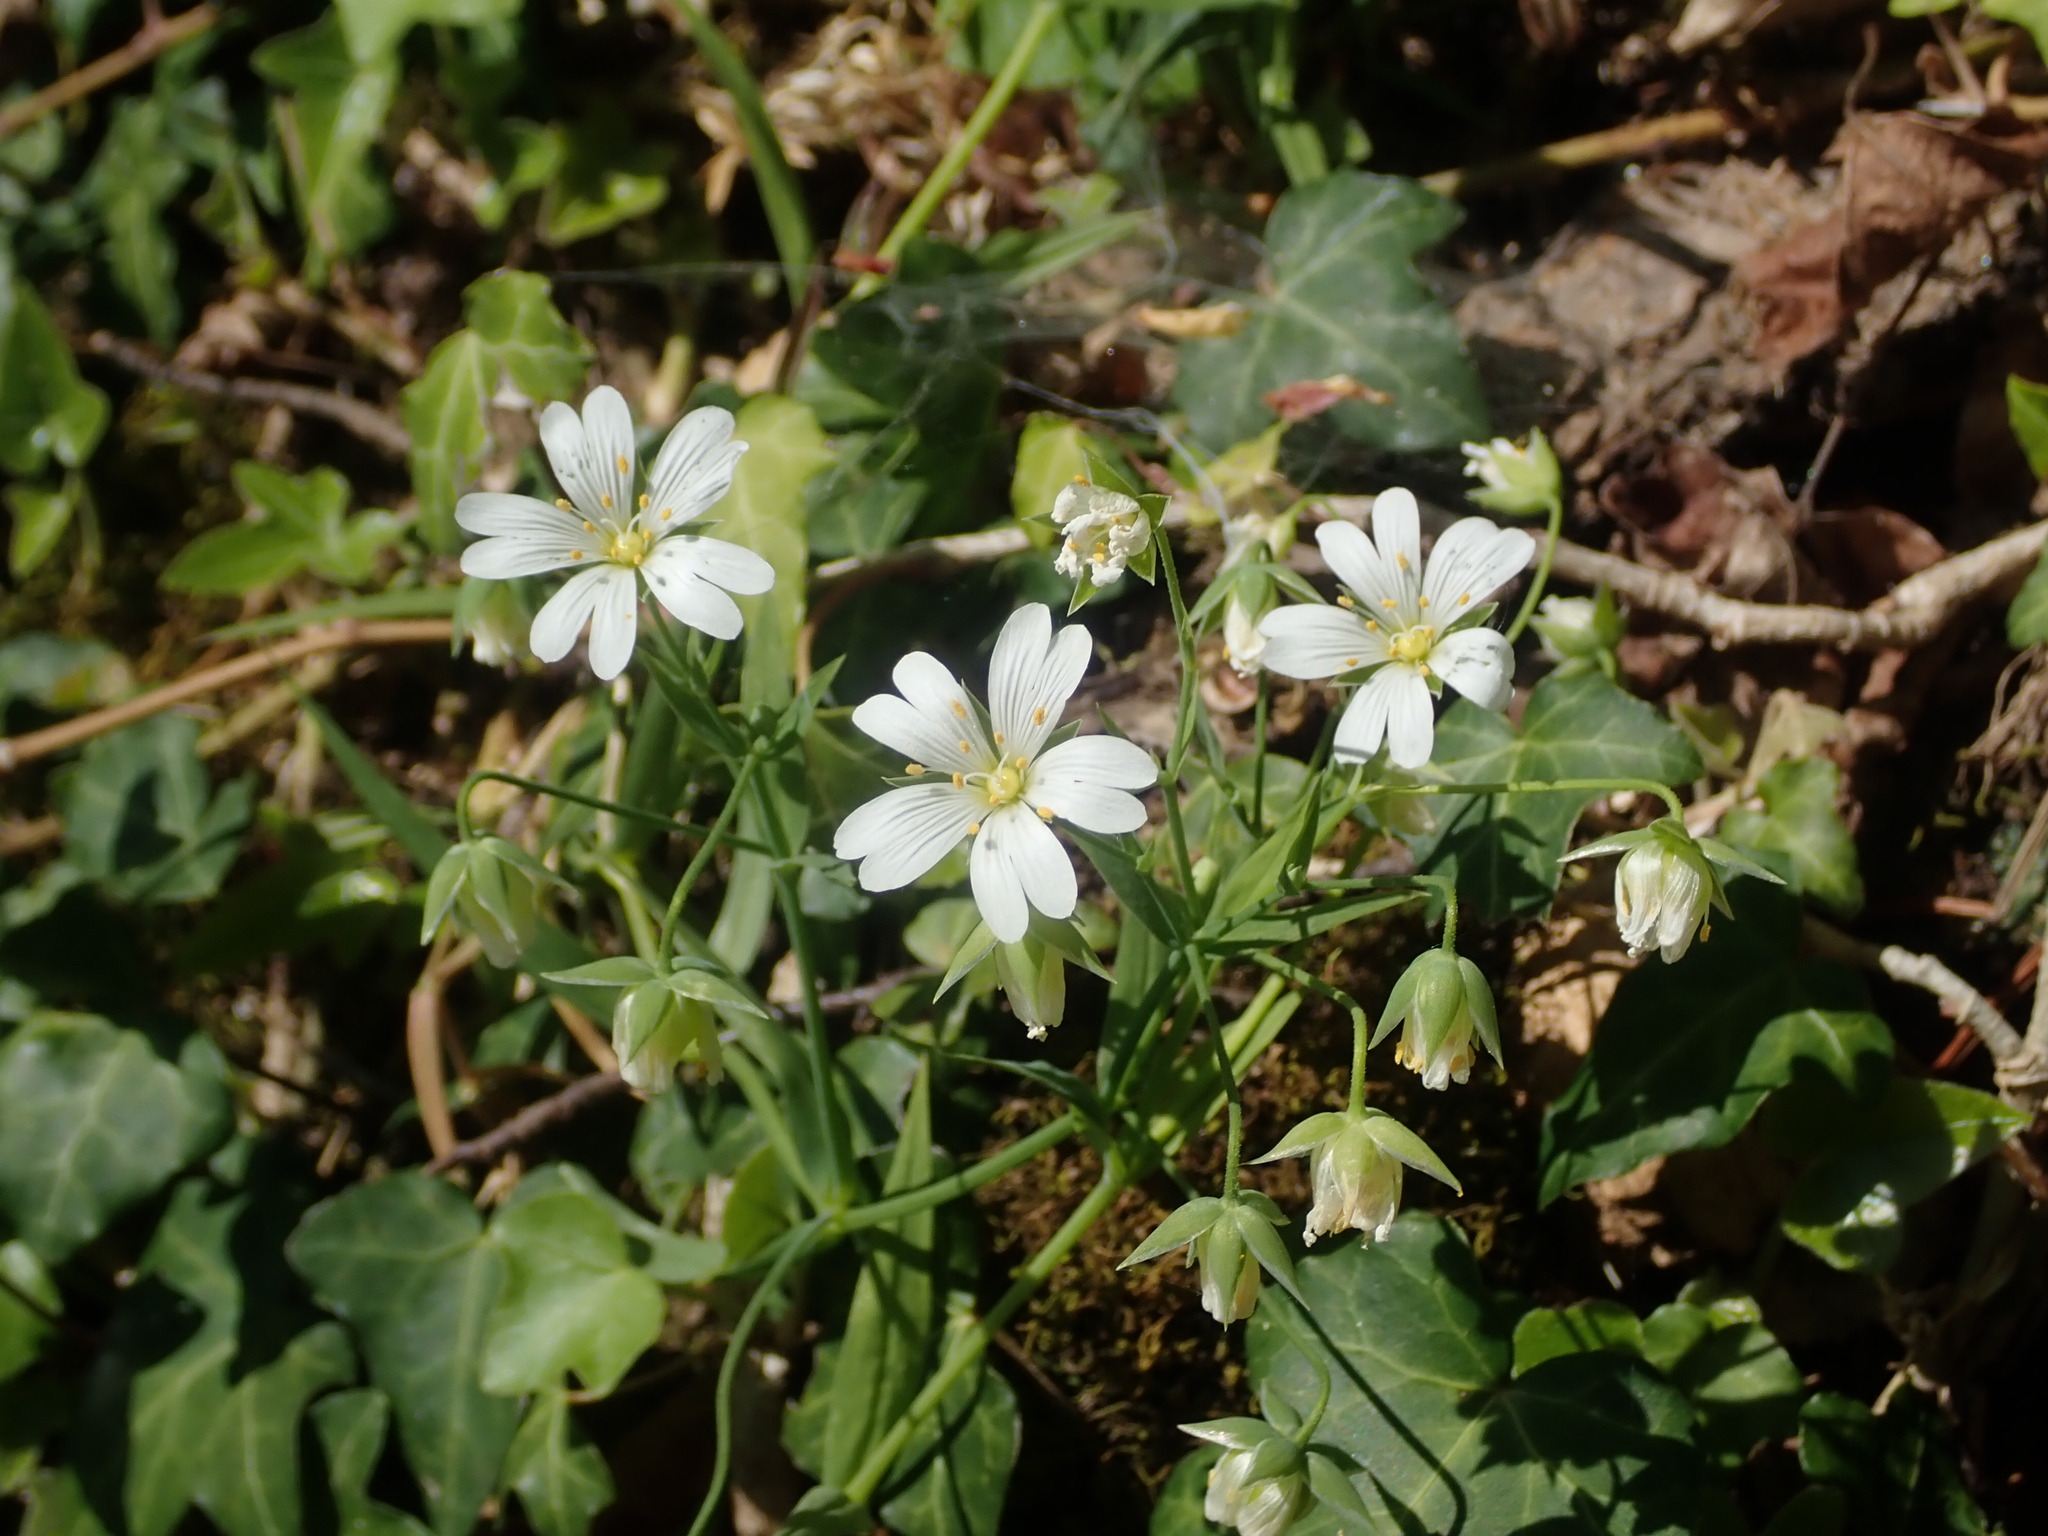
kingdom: Plantae
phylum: Tracheophyta
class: Magnoliopsida
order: Caryophyllales
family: Caryophyllaceae
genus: Rabelera
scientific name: Rabelera holostea
